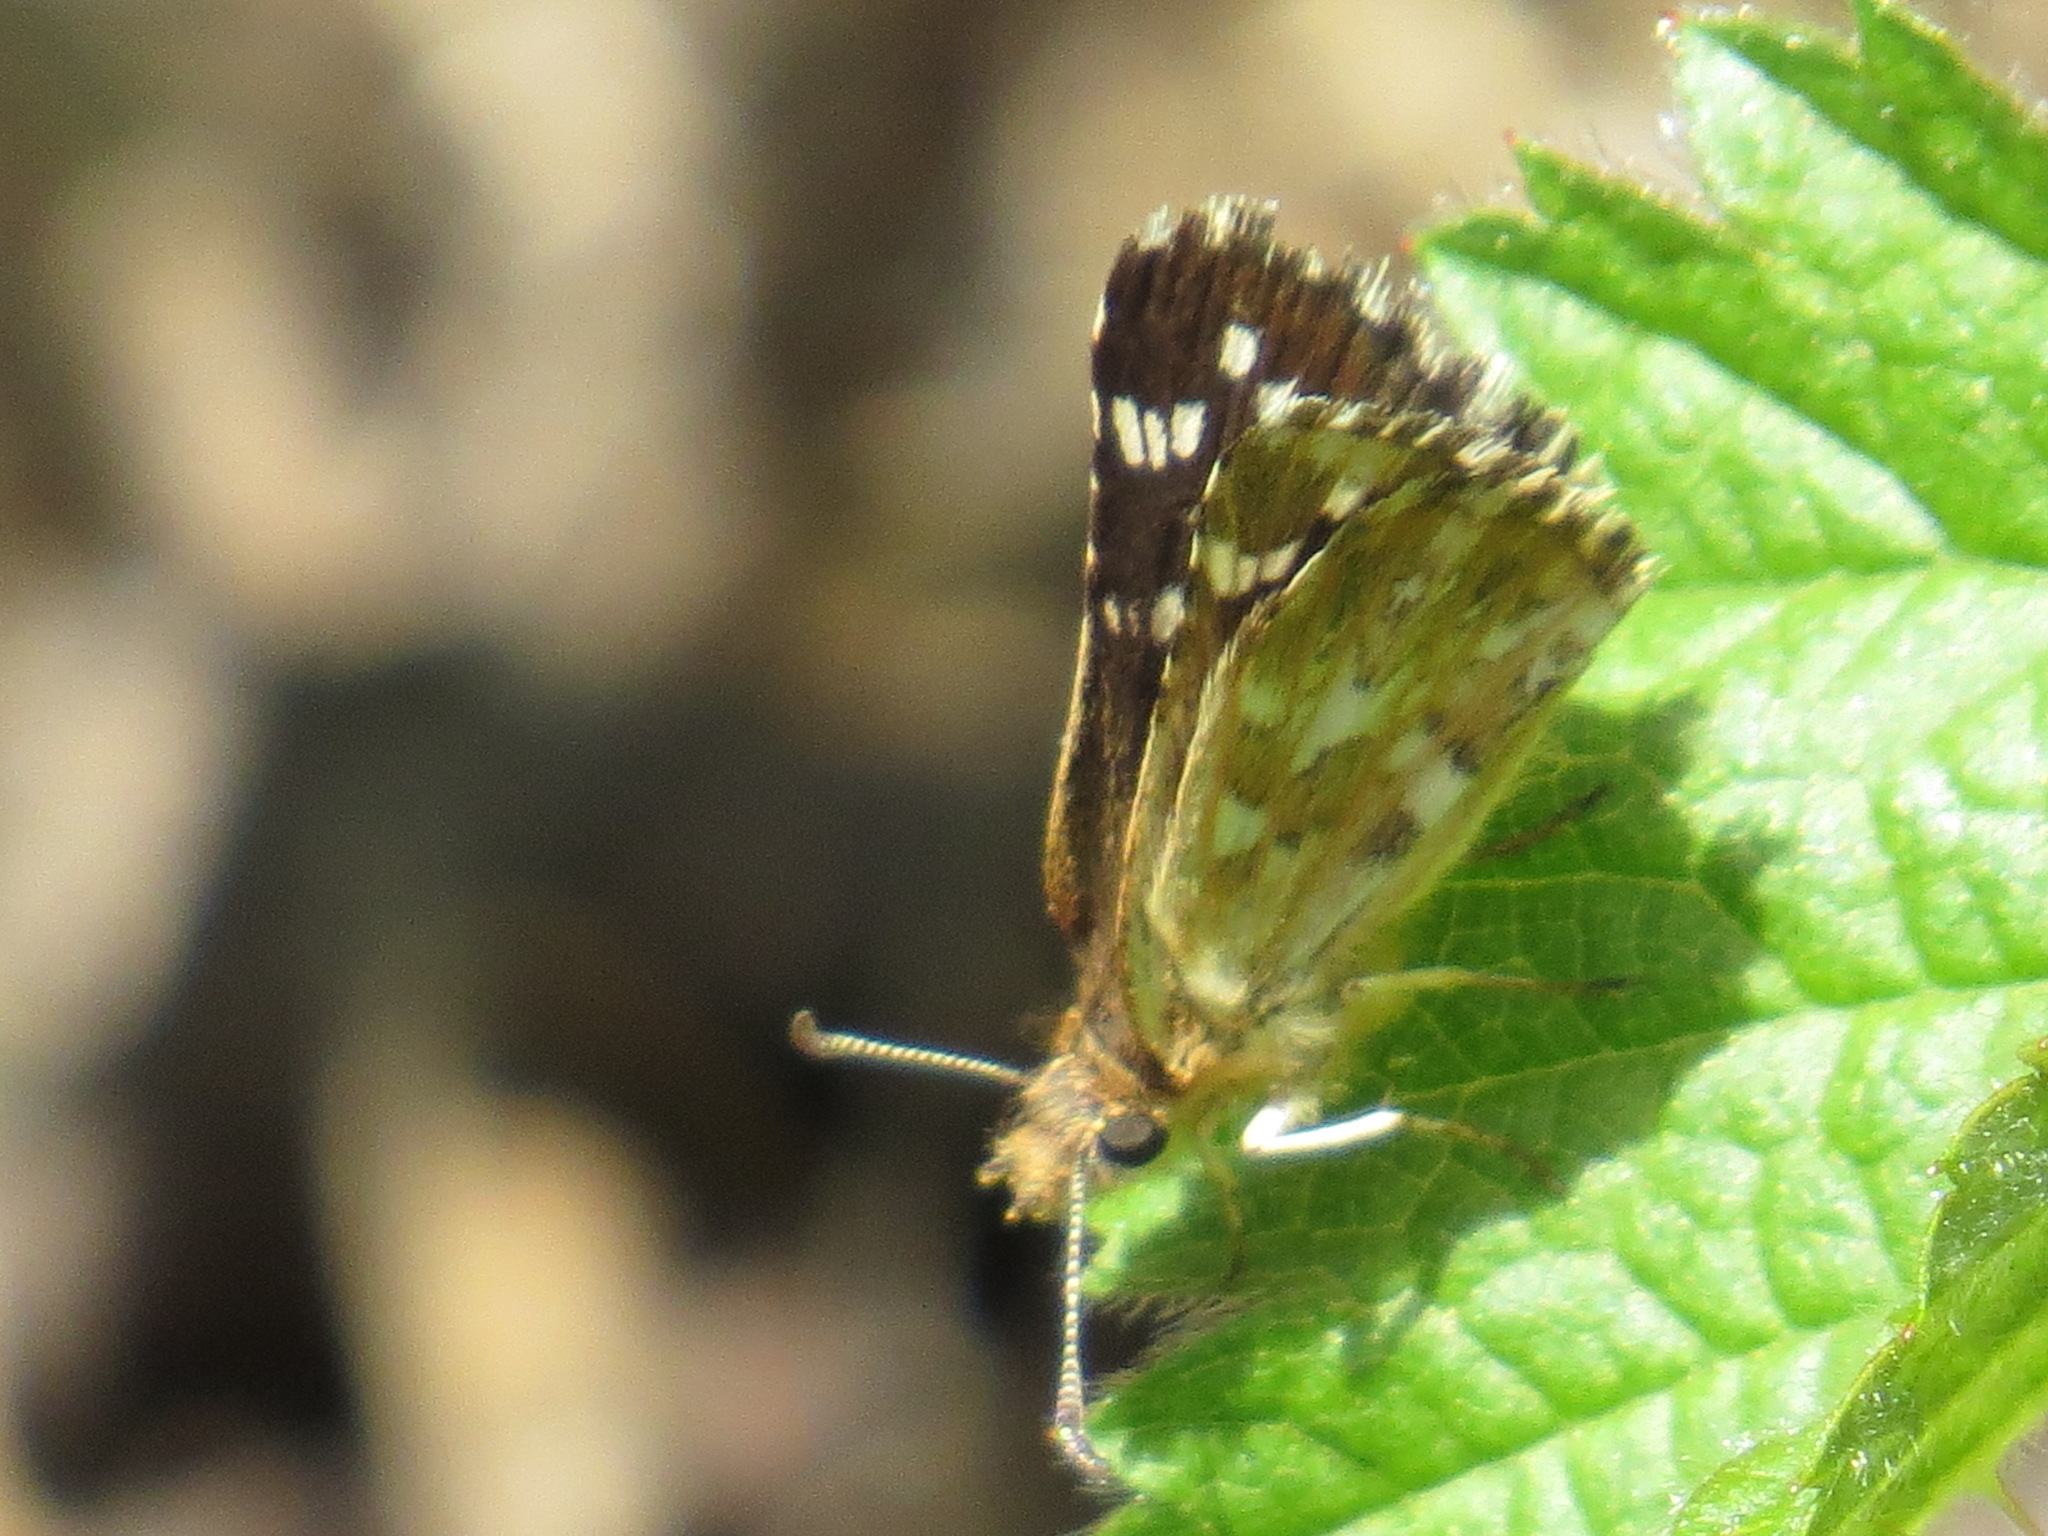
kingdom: Animalia
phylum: Arthropoda
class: Insecta
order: Lepidoptera
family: Hesperiidae
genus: Pyrgus
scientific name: Pyrgus ruralis
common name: Two-banded checkered-skipper
